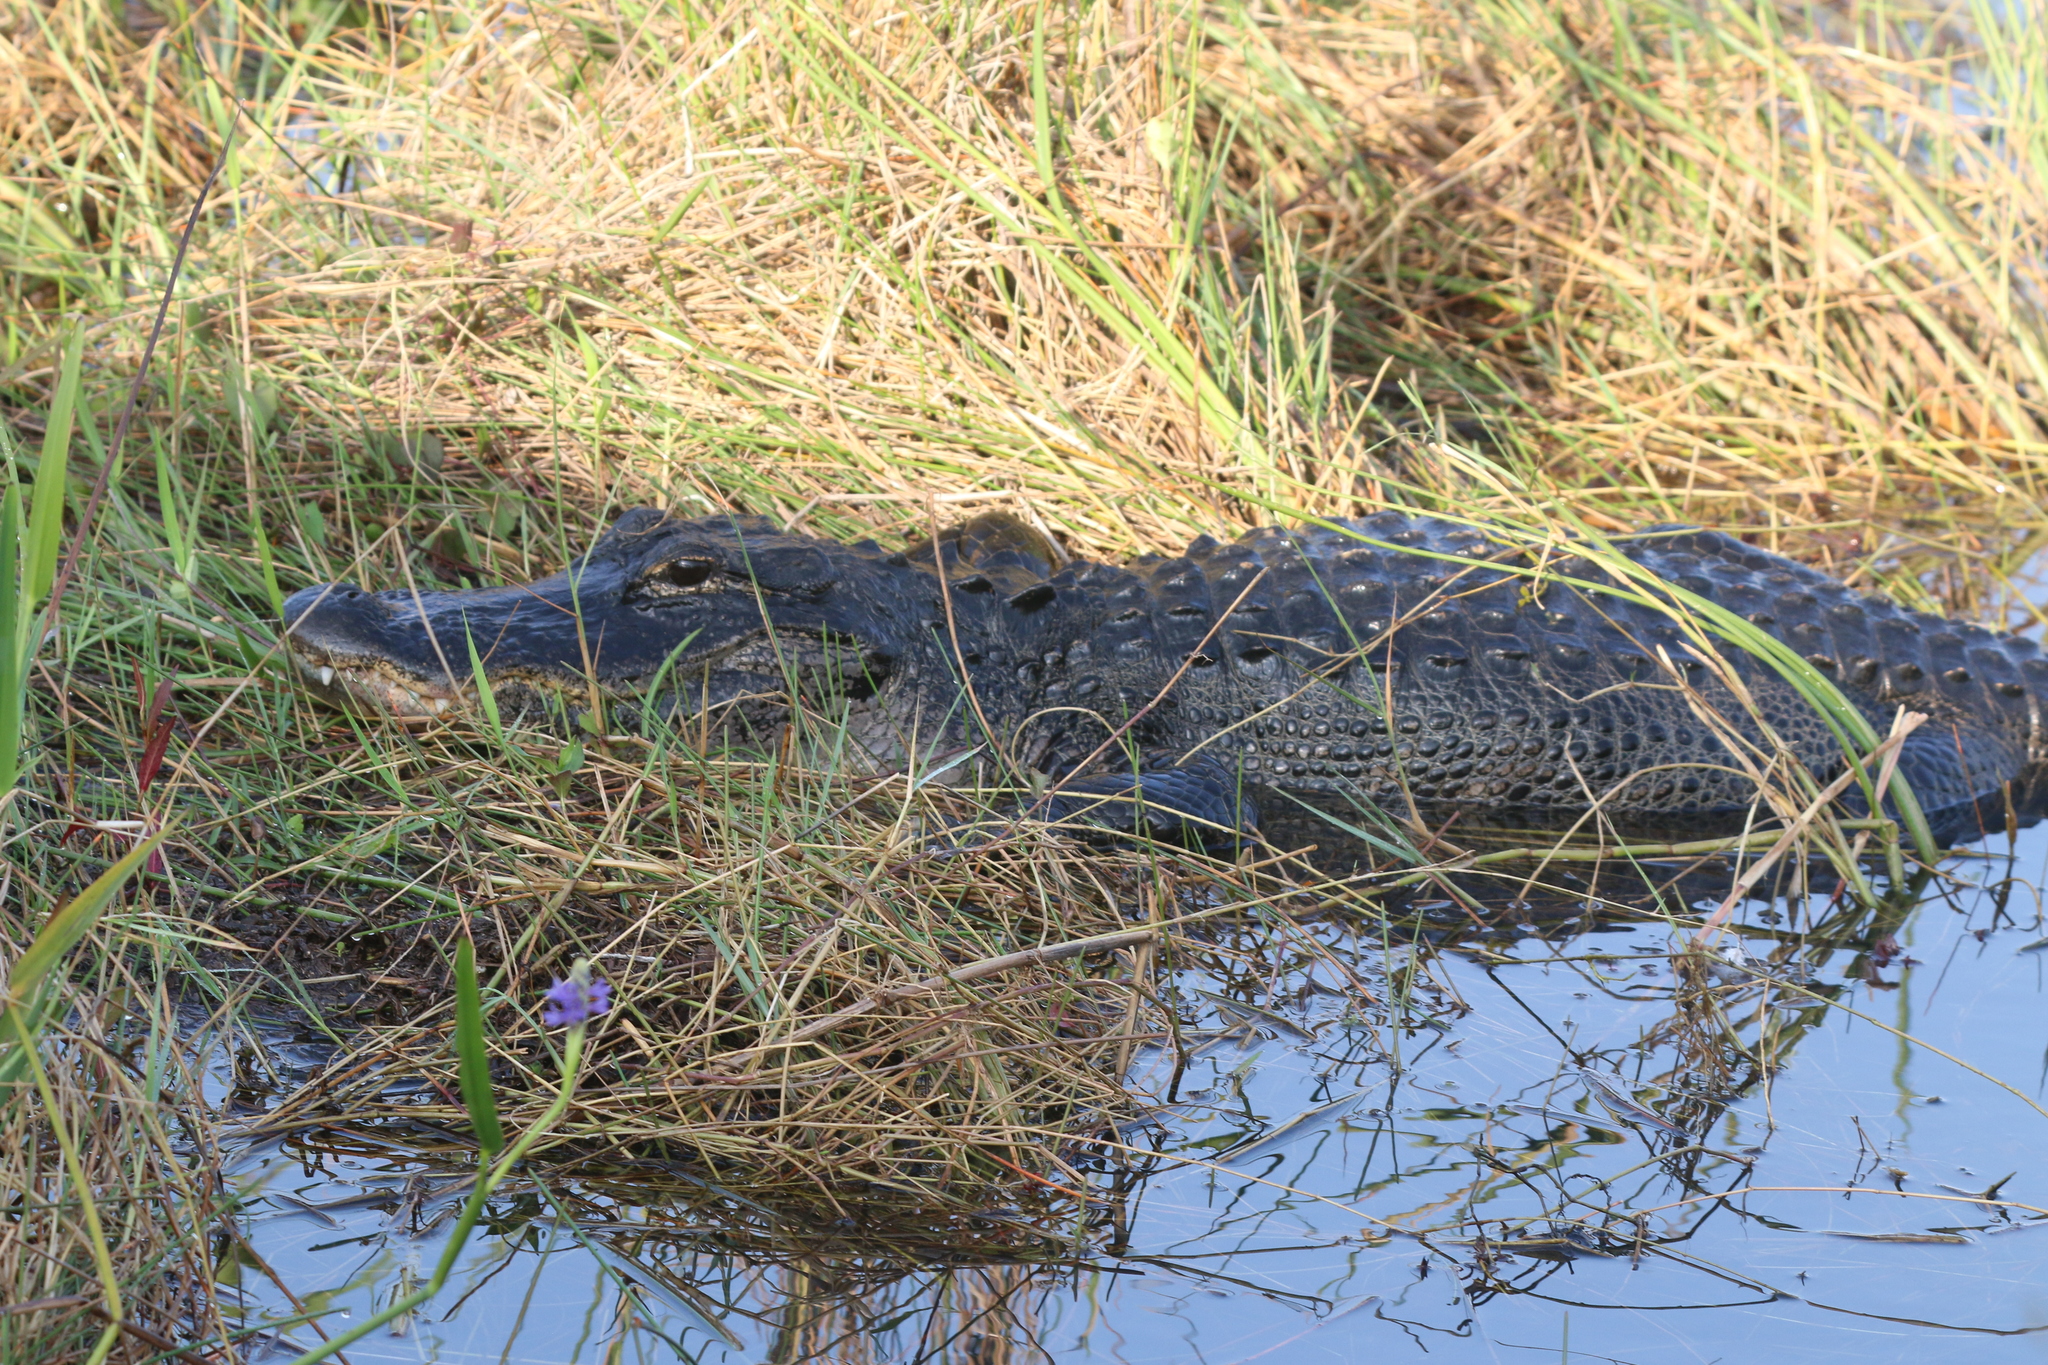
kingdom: Animalia
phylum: Chordata
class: Crocodylia
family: Alligatoridae
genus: Alligator
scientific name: Alligator mississippiensis
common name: American alligator
